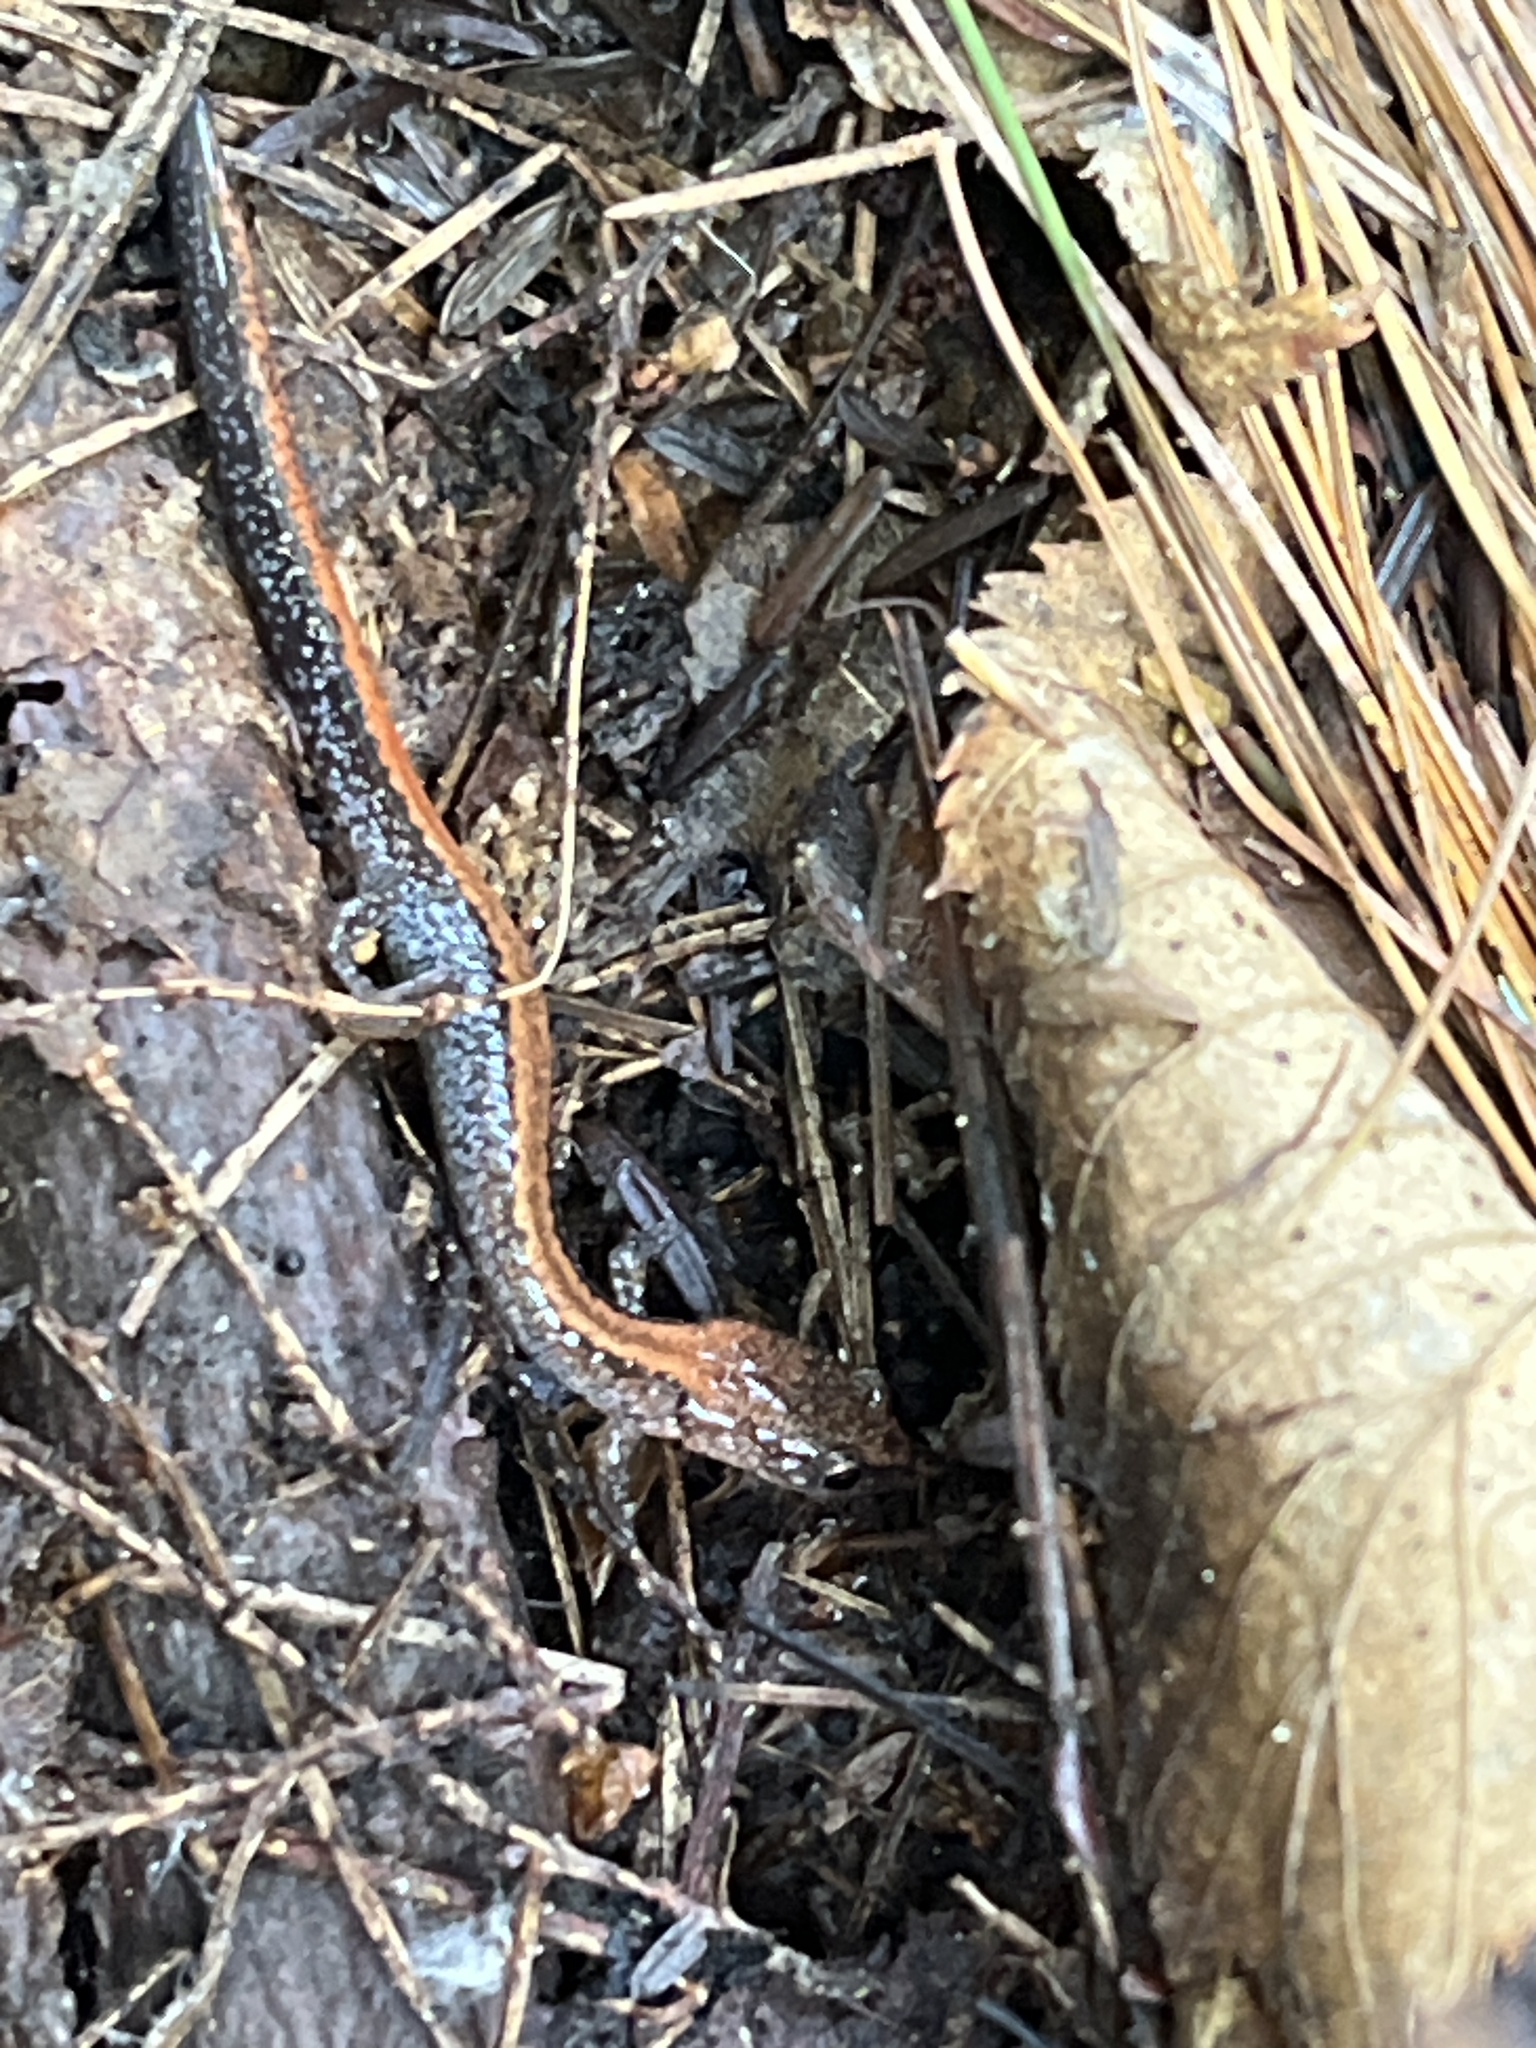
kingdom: Animalia
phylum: Chordata
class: Amphibia
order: Caudata
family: Plethodontidae
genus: Plethodon
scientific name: Plethodon cinereus
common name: Redback salamander
